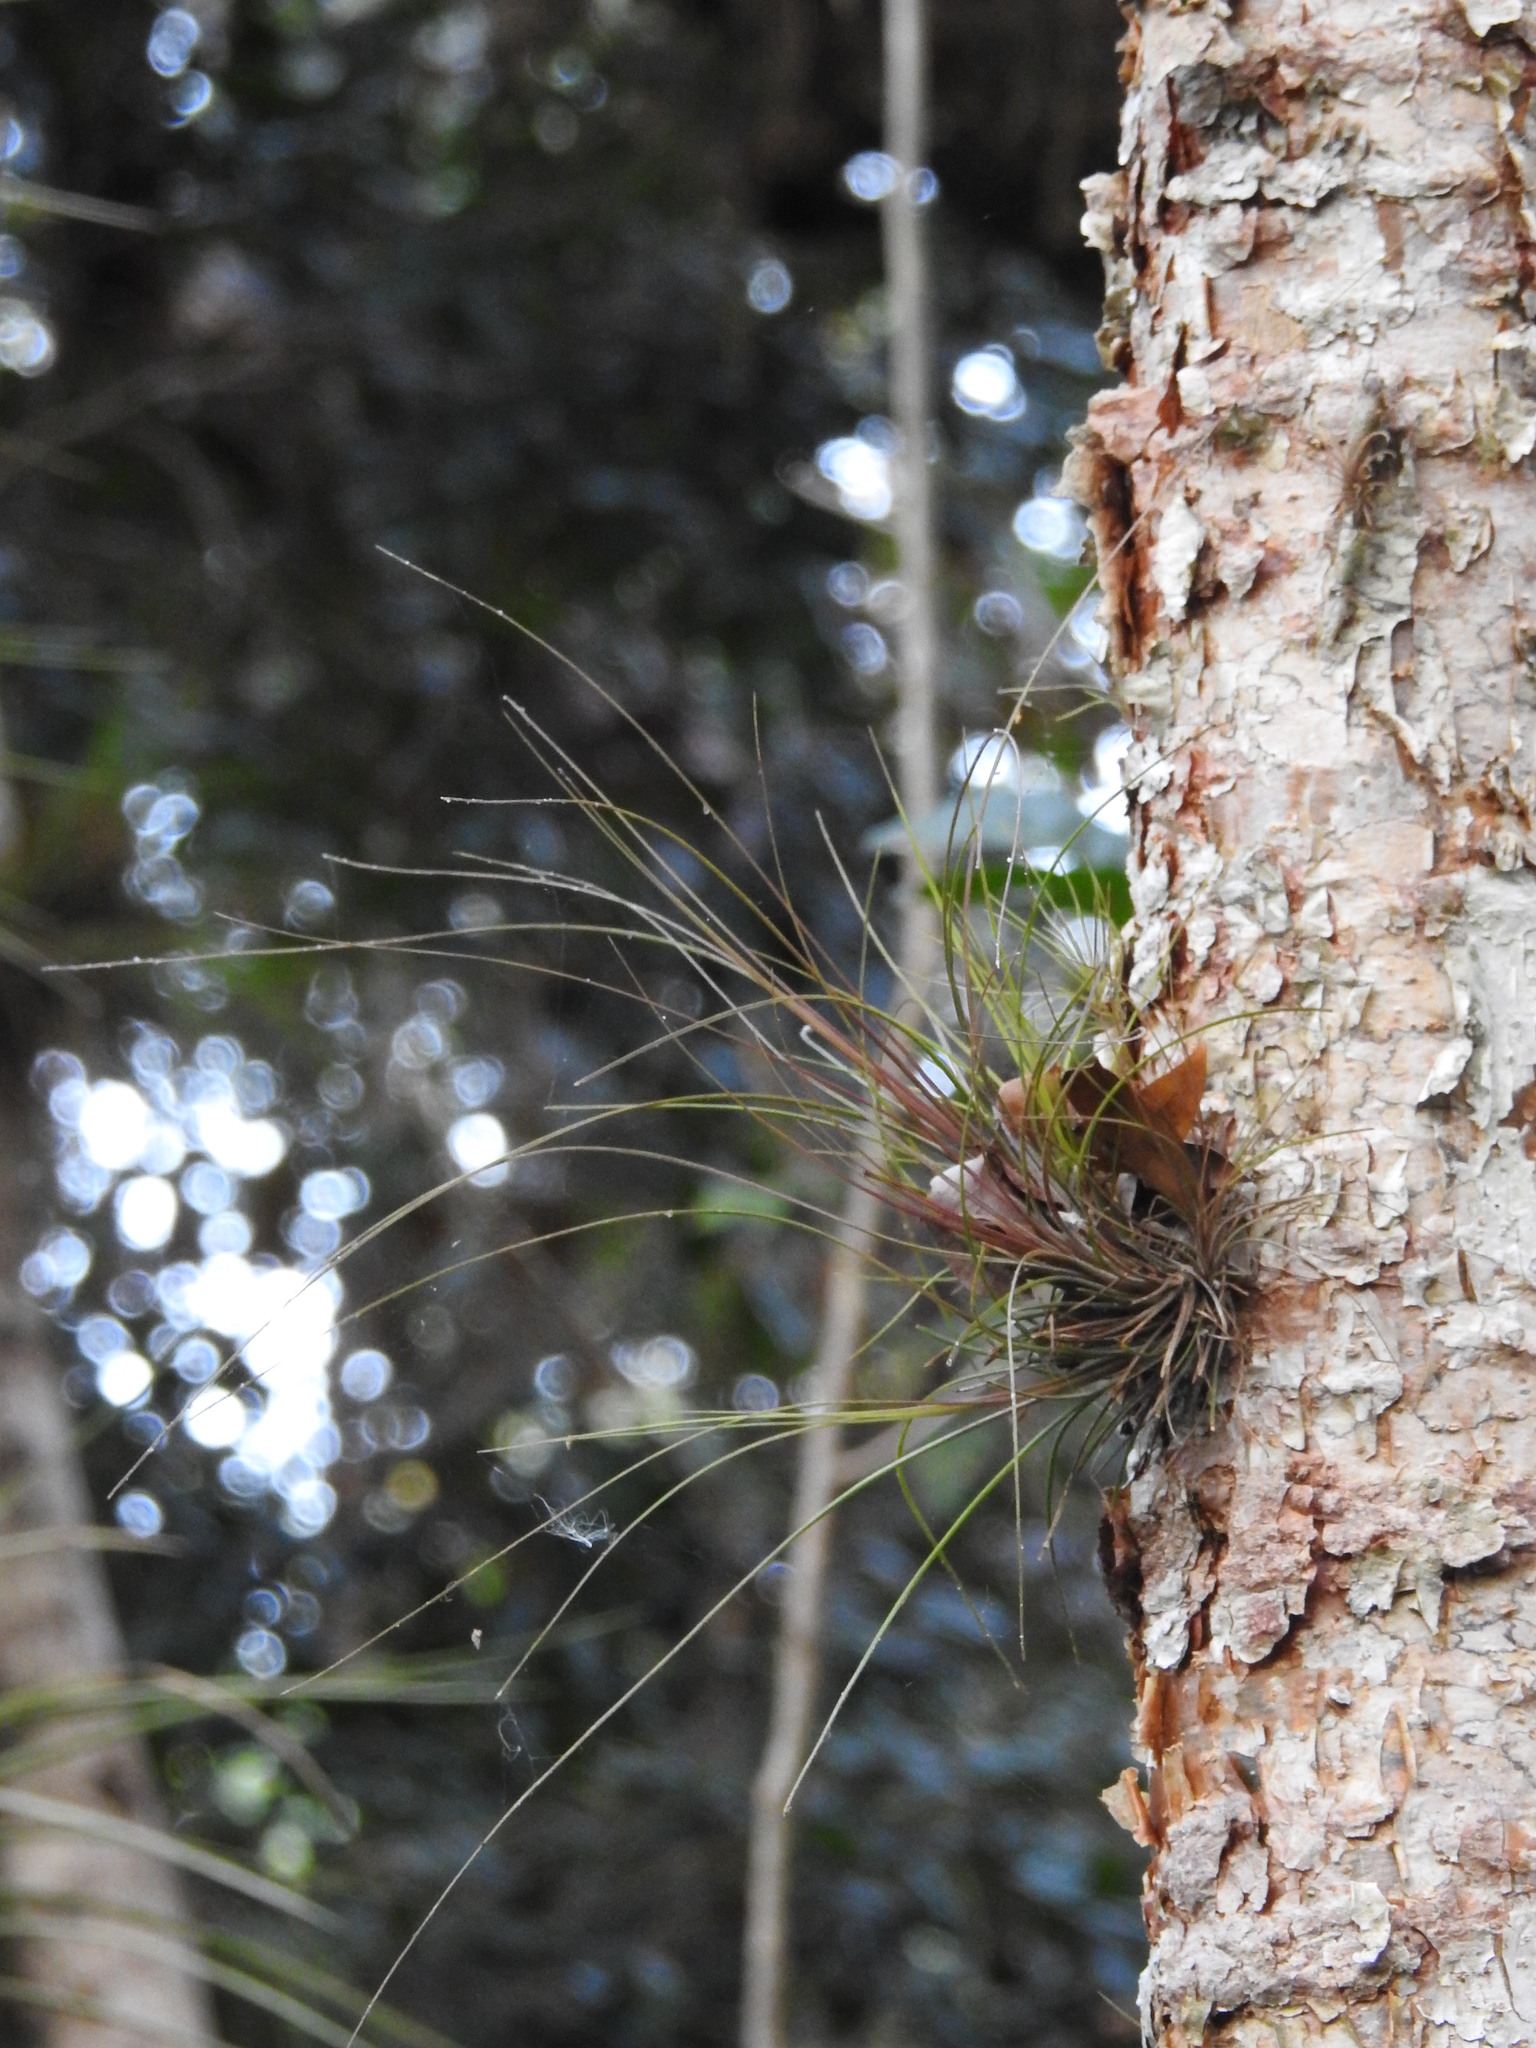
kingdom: Plantae
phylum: Tracheophyta
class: Liliopsida
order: Poales
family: Bromeliaceae
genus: Tillandsia
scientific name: Tillandsia setacea
